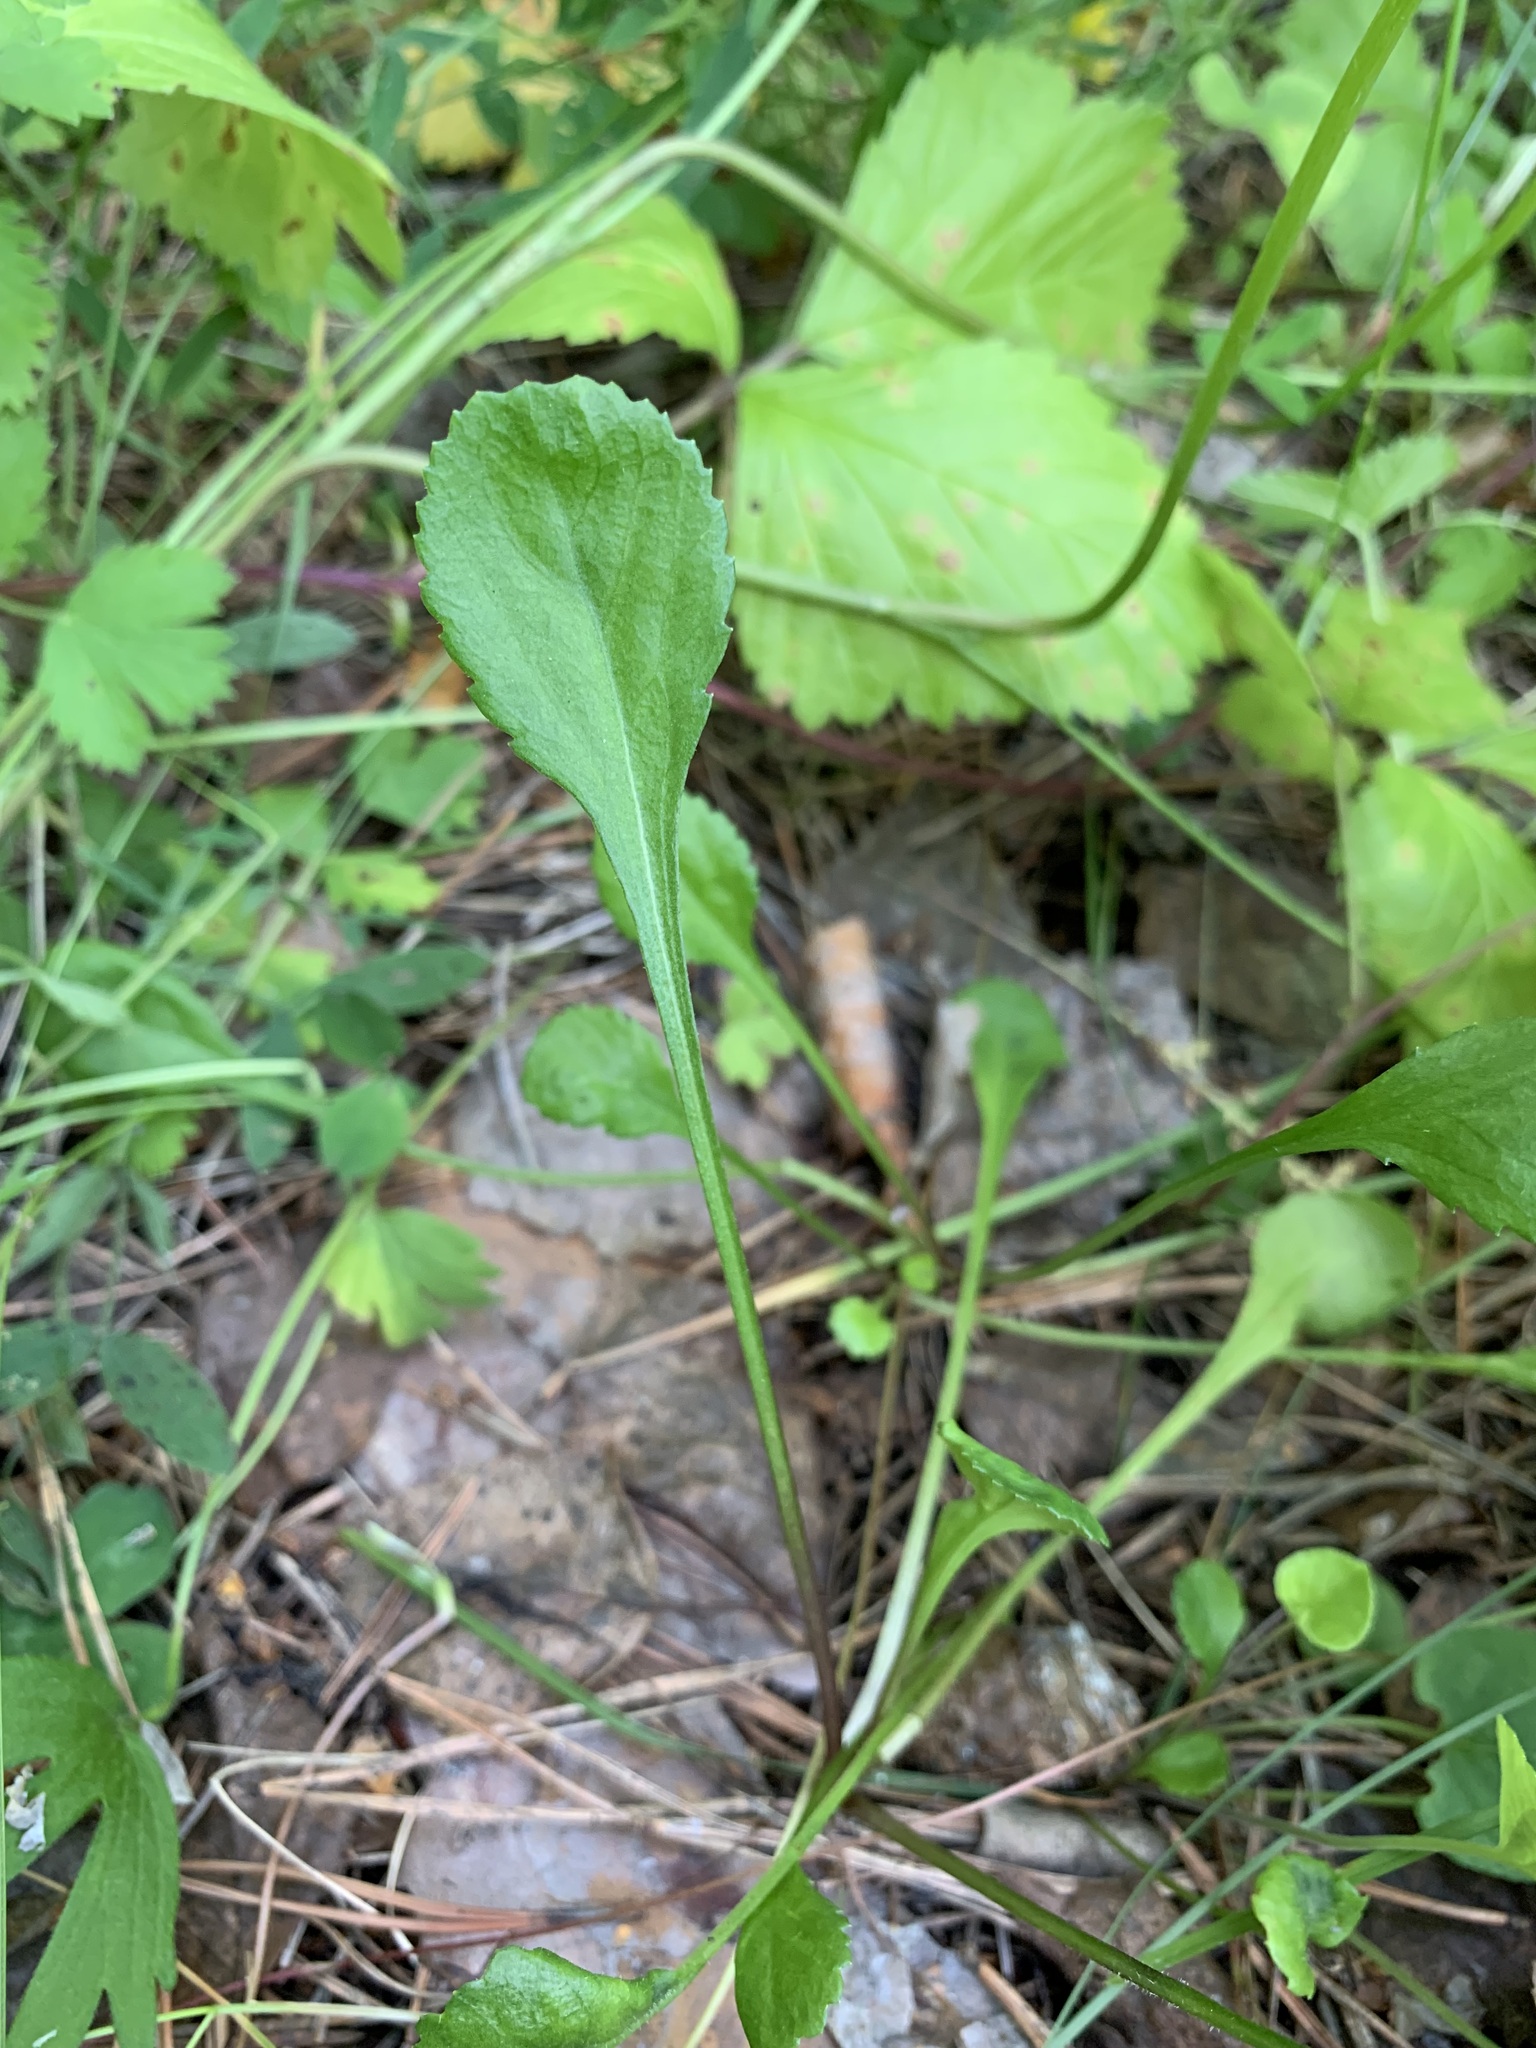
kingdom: Plantae
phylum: Tracheophyta
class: Magnoliopsida
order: Asterales
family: Asteraceae
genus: Leucanthemum
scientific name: Leucanthemum ircutianum
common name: Daisy
